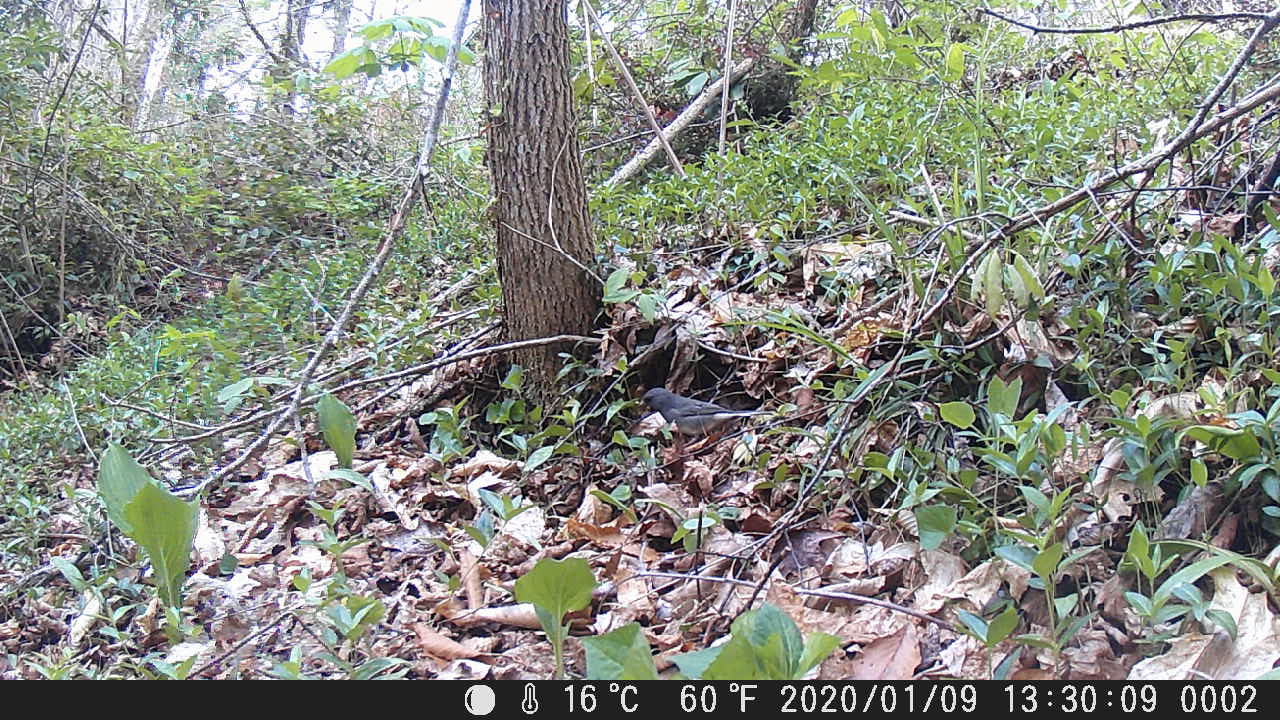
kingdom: Animalia
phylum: Chordata
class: Aves
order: Passeriformes
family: Passerellidae
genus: Junco
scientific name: Junco hyemalis
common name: Dark-eyed junco
